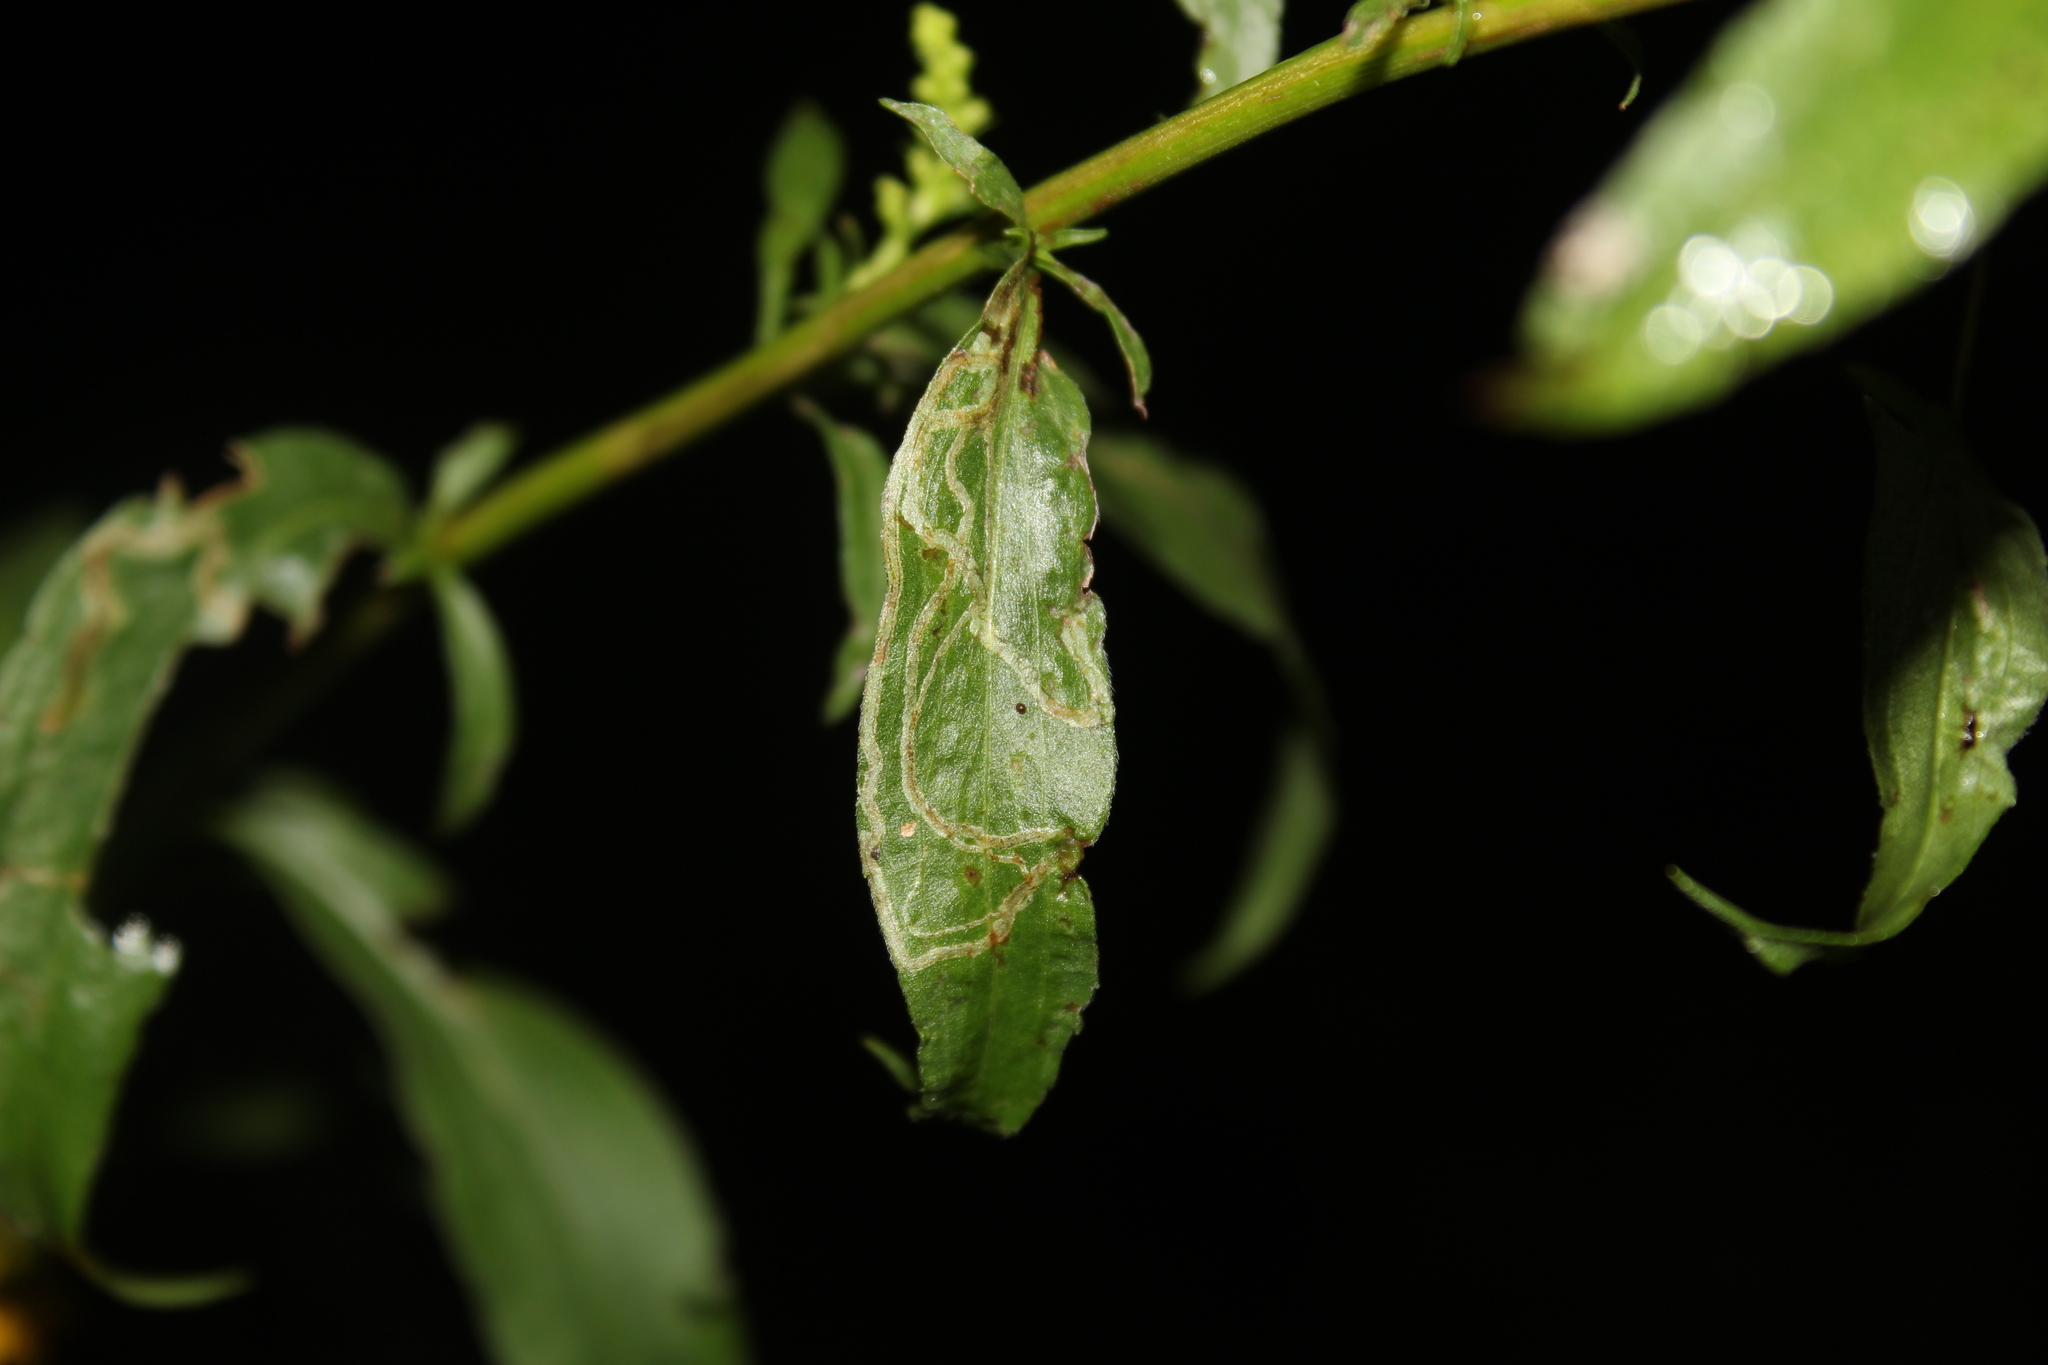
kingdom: Animalia
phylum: Arthropoda
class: Insecta
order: Diptera
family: Agromyzidae
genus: Ophiomyia
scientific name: Ophiomyia maura
